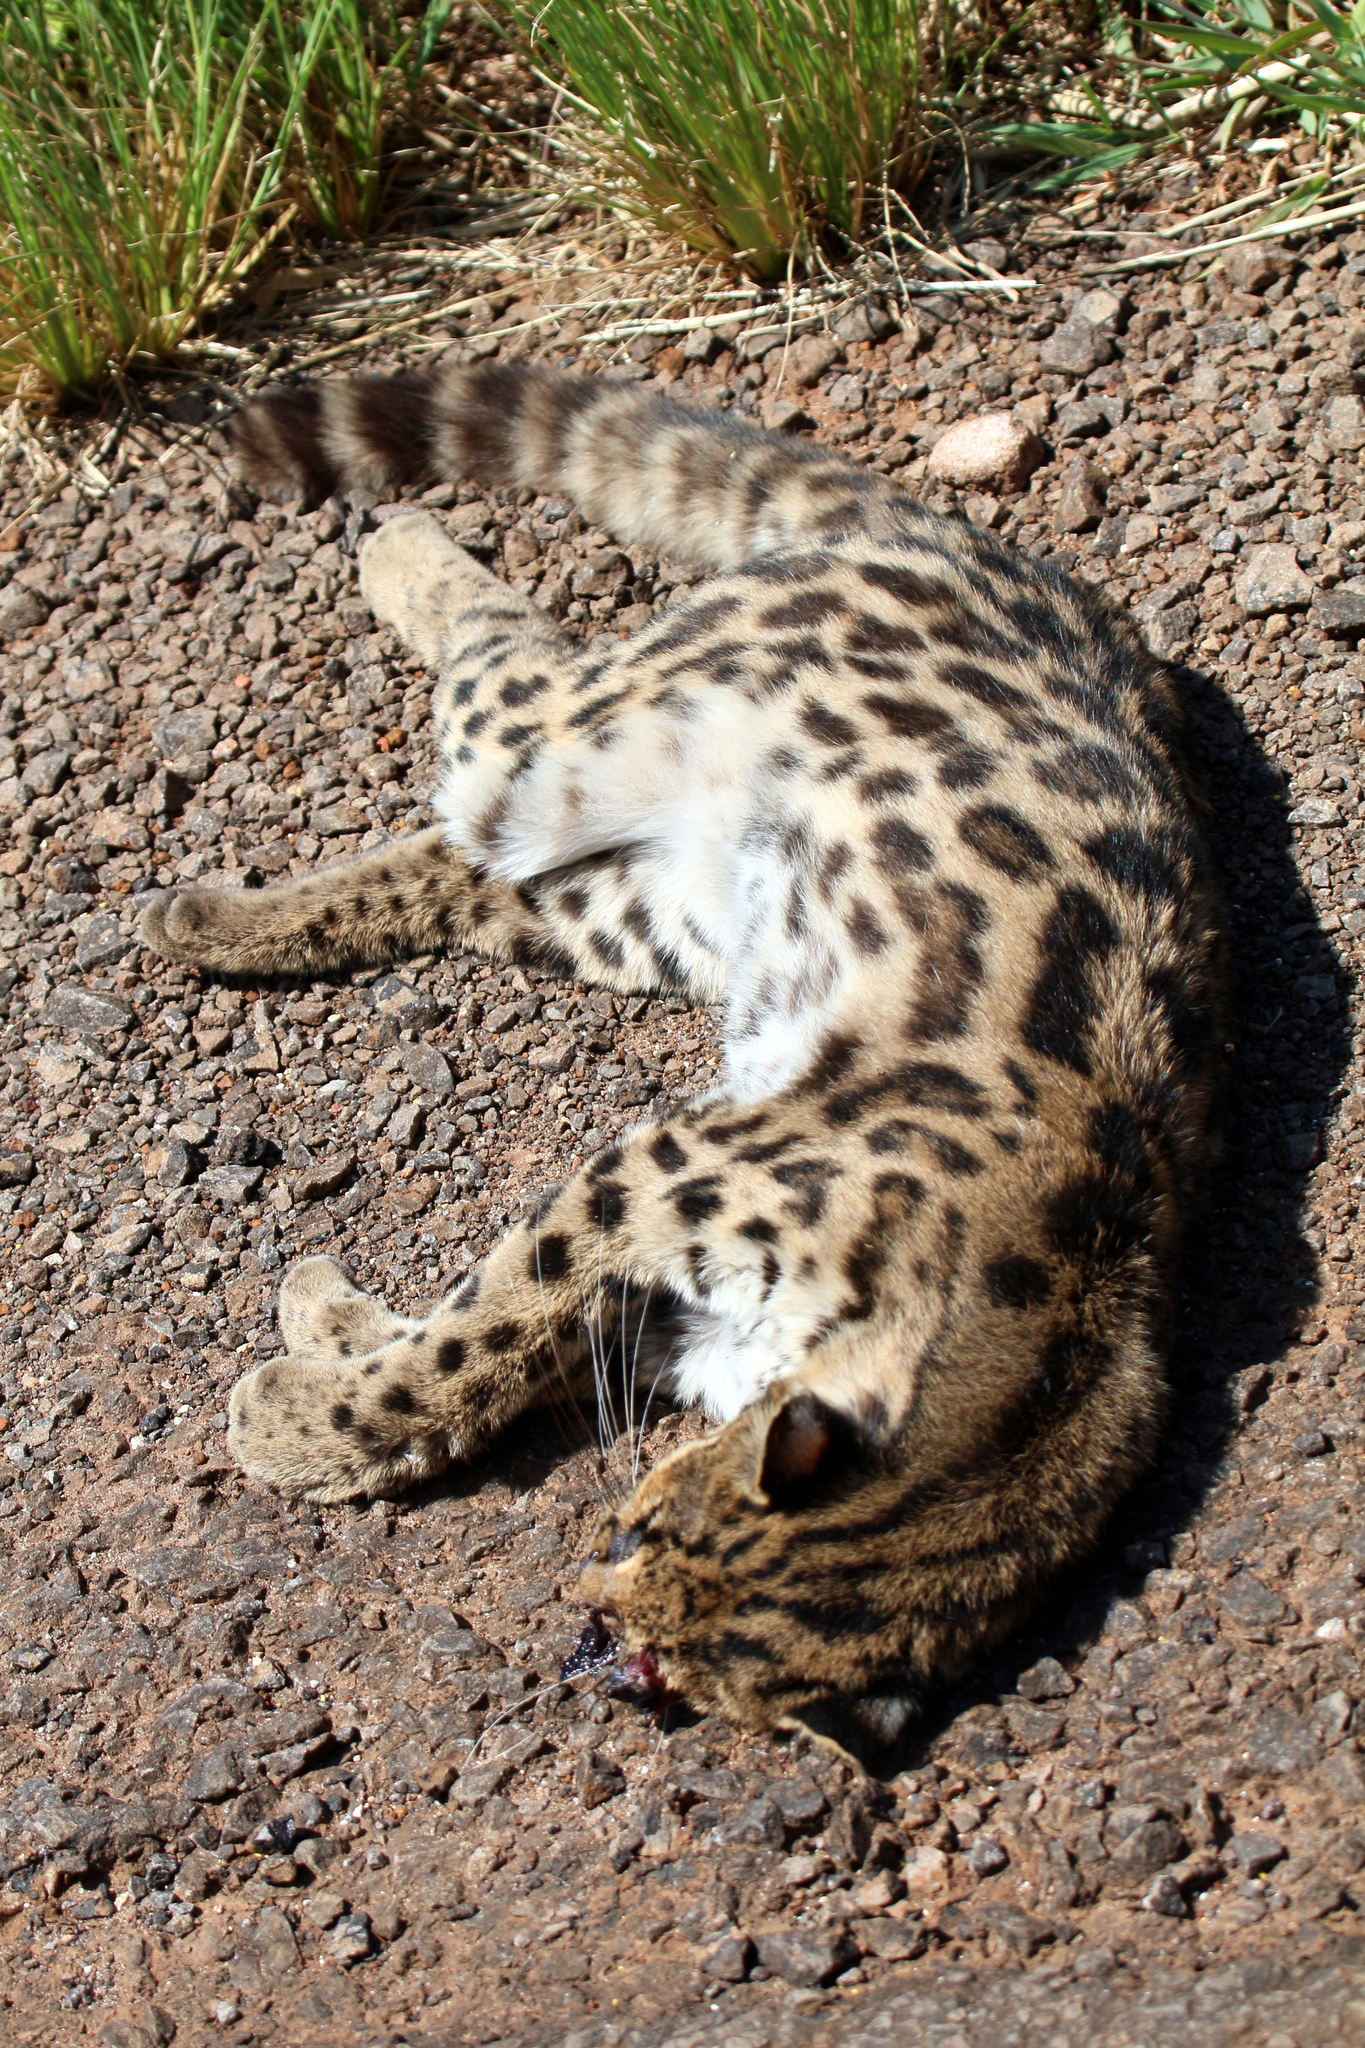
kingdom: Animalia
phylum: Chordata
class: Mammalia
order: Carnivora
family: Felidae
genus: Leopardus
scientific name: Leopardus wiedii
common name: Margay
